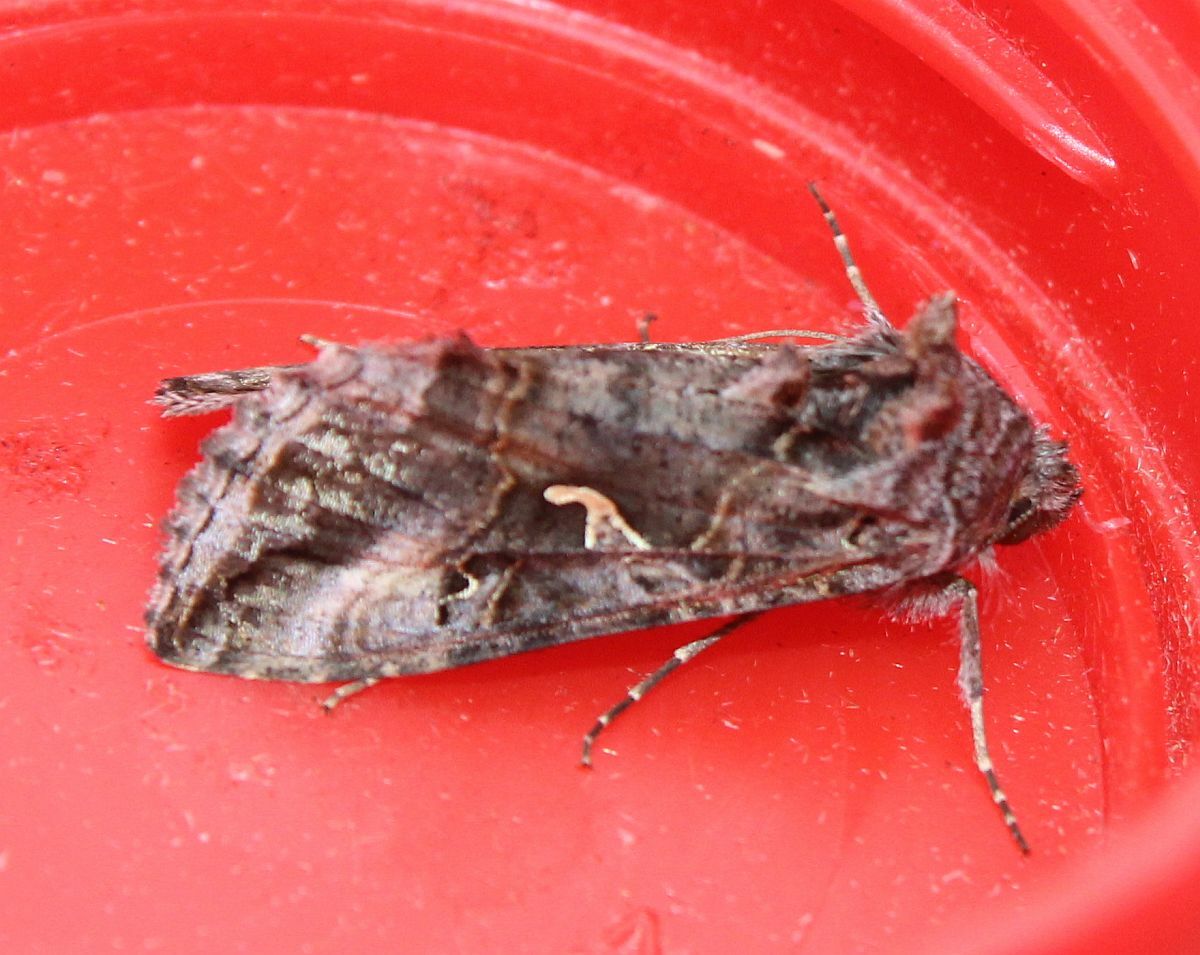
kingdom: Animalia
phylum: Arthropoda
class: Insecta
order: Lepidoptera
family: Noctuidae
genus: Autographa
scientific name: Autographa gamma
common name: Silver y
